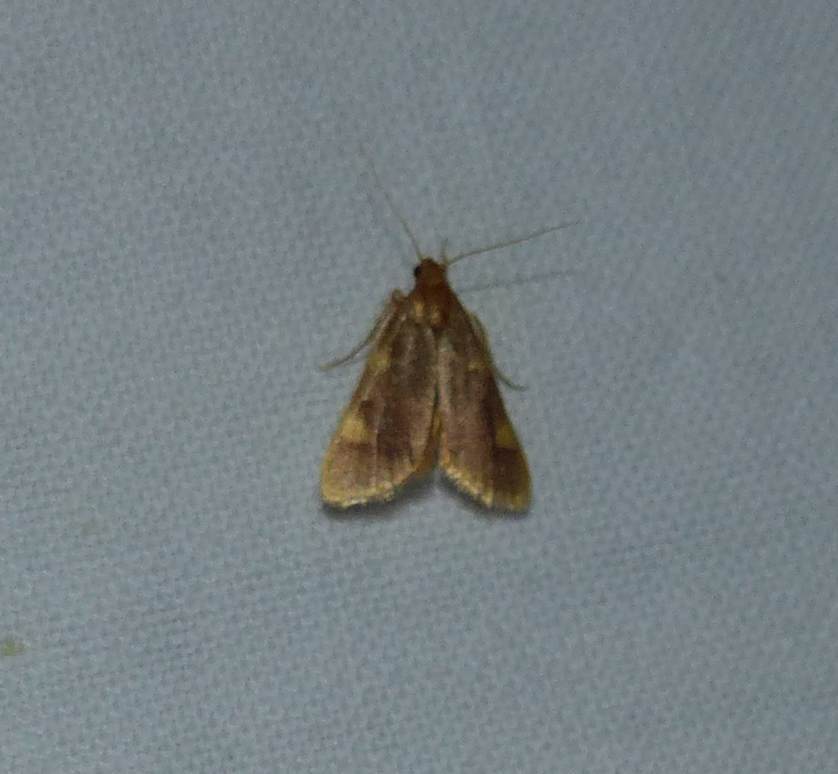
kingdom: Animalia
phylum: Arthropoda
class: Insecta
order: Lepidoptera
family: Pyralidae
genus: Hypsopygia
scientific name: Hypsopygia costalis
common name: Gold triangle
